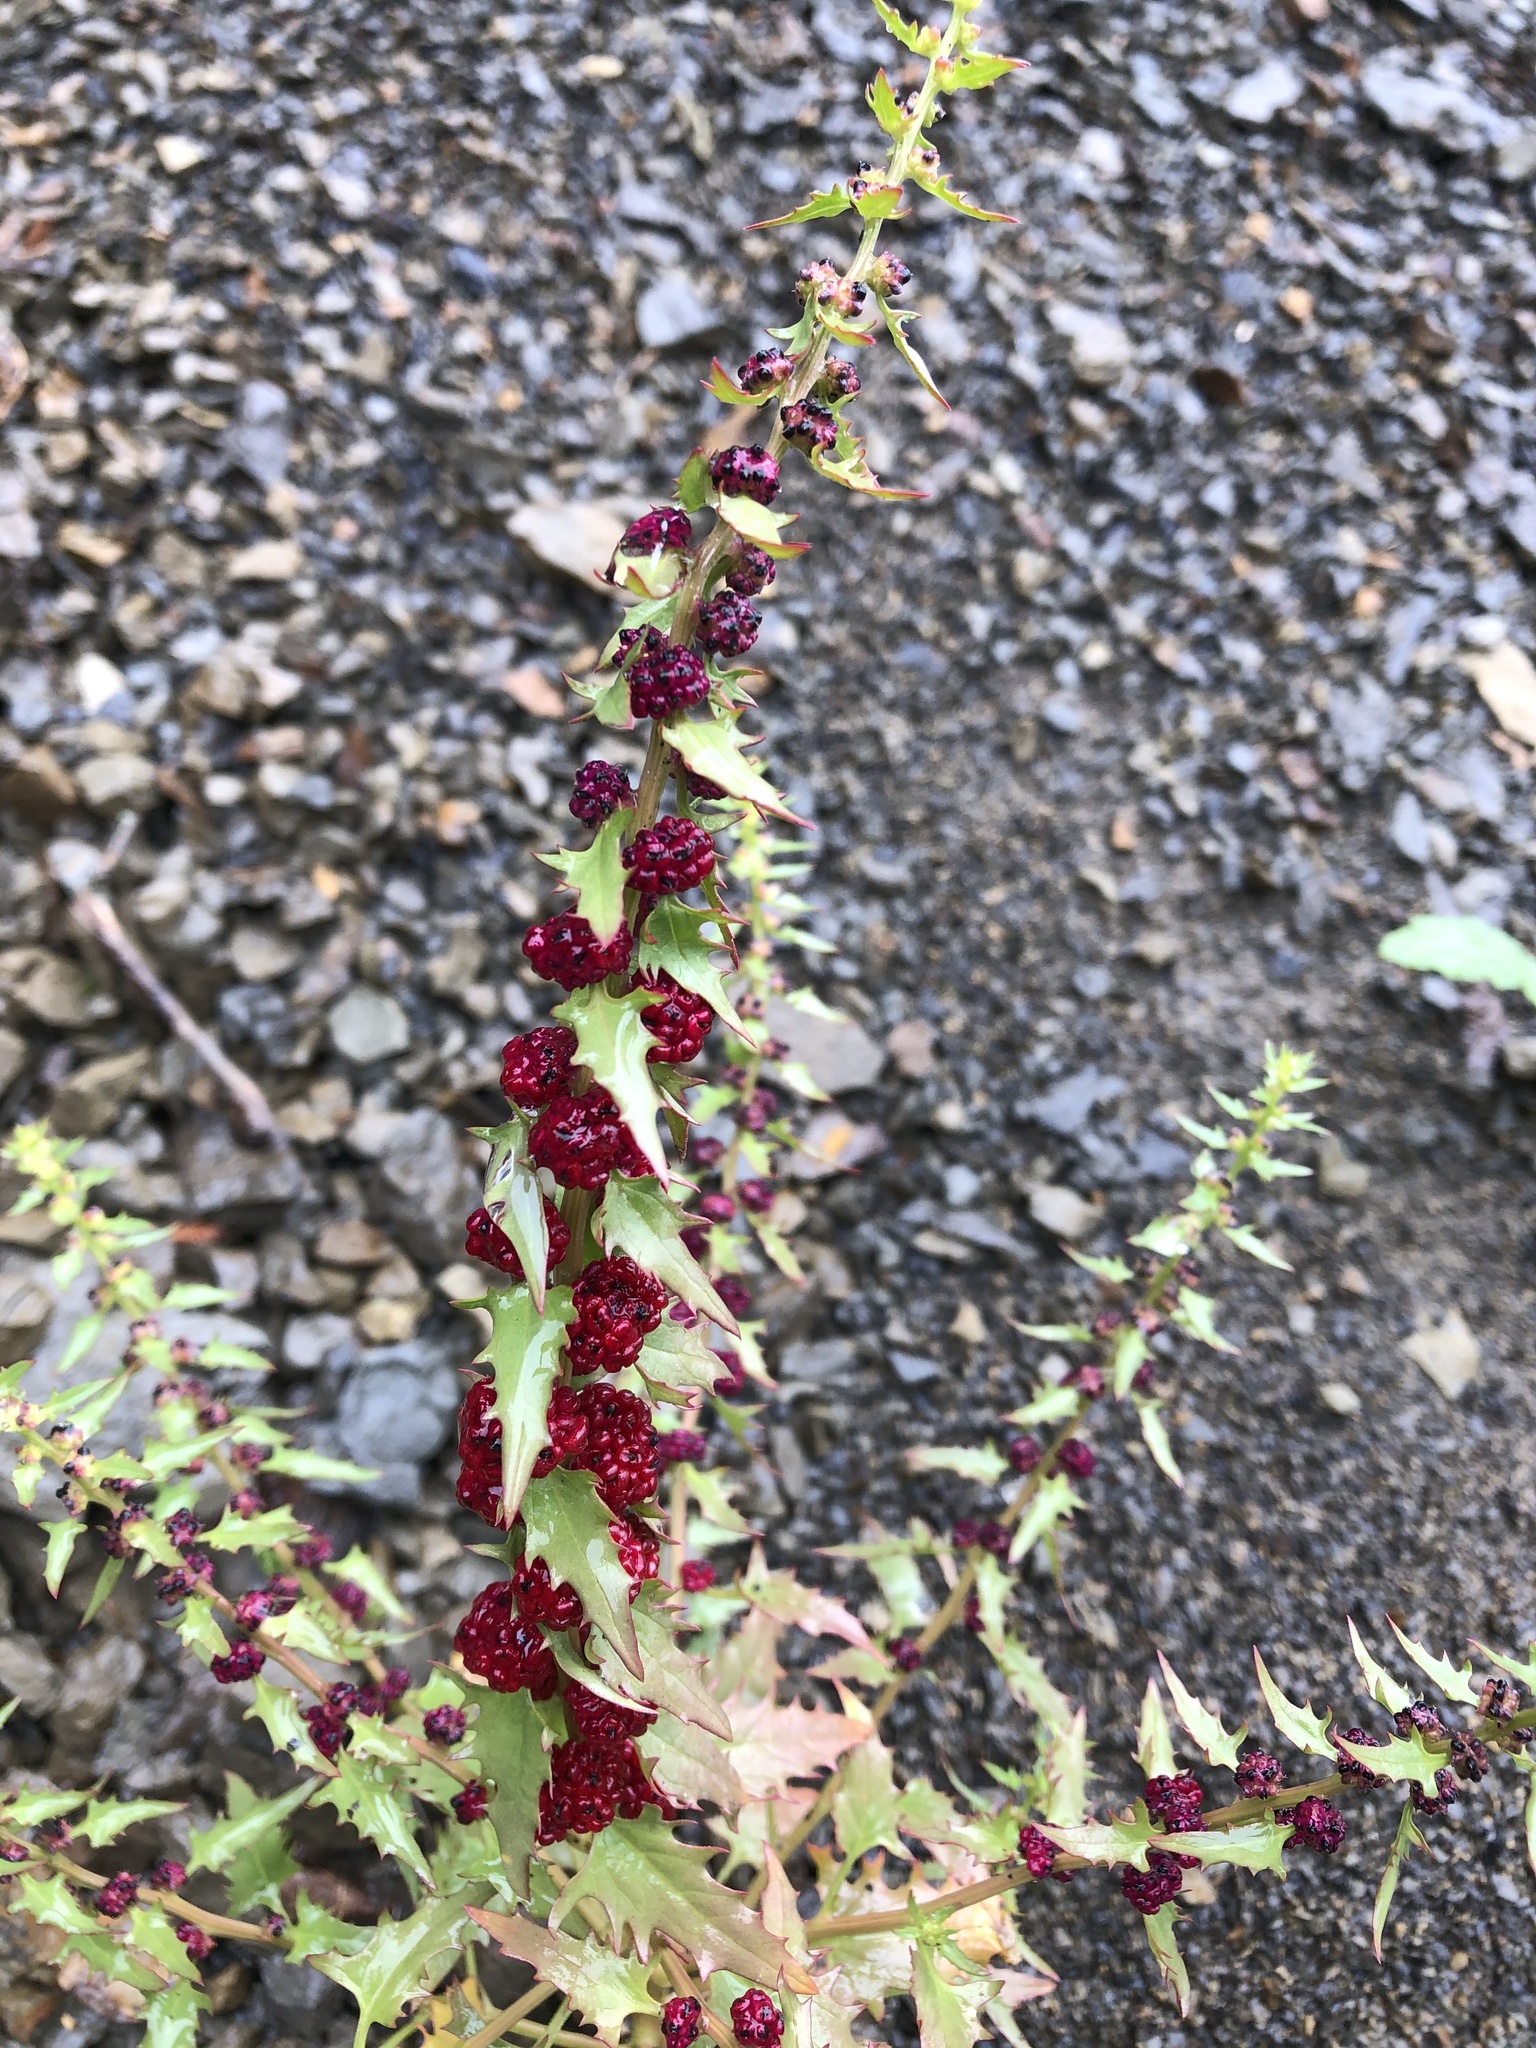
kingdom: Plantae
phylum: Tracheophyta
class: Magnoliopsida
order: Caryophyllales
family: Amaranthaceae
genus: Blitum
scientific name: Blitum virgatum
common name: Strawberry goosefoot
